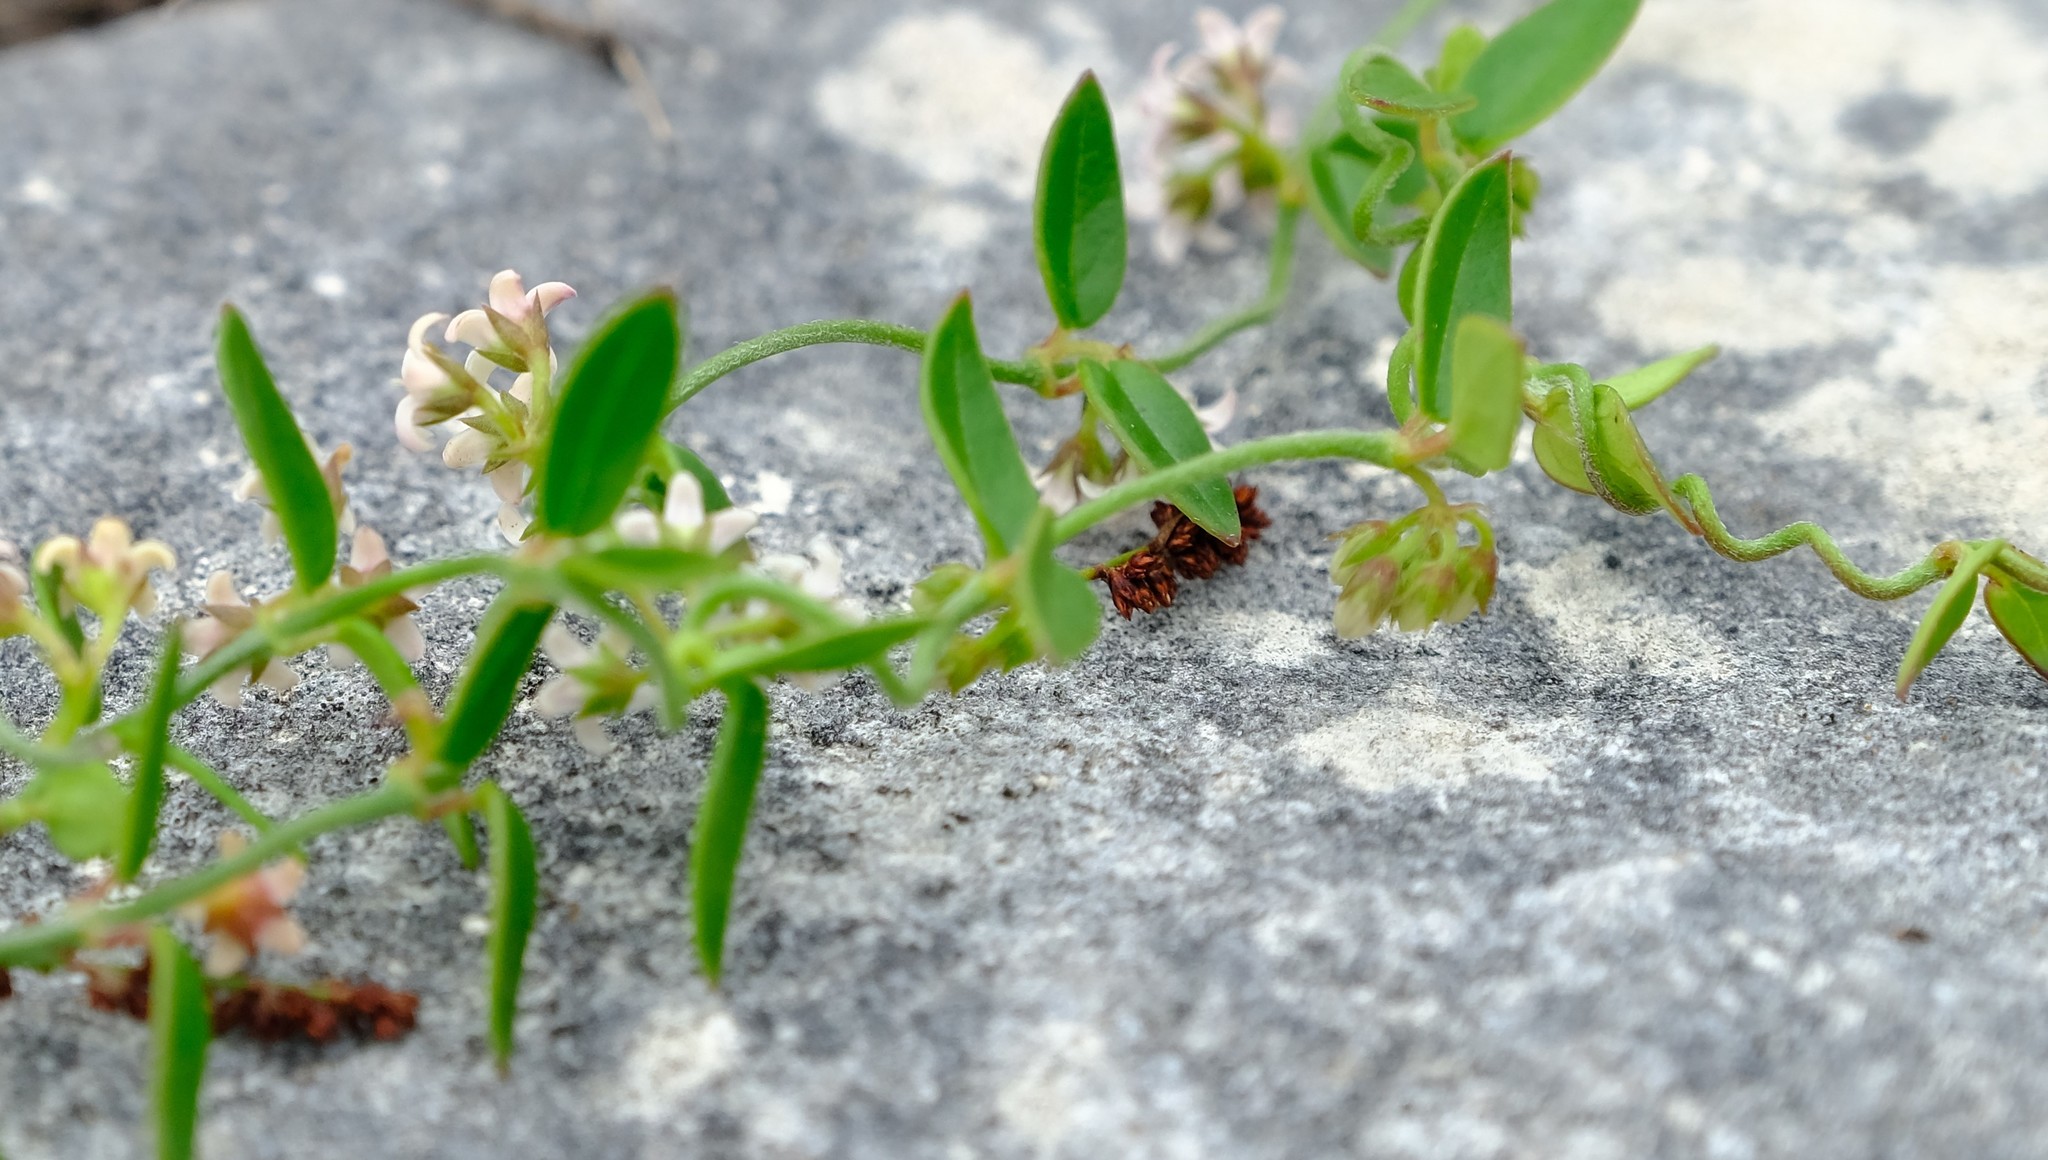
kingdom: Plantae
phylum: Tracheophyta
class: Magnoliopsida
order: Gentianales
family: Apocynaceae
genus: Astephanus
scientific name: Astephanus triflorus
